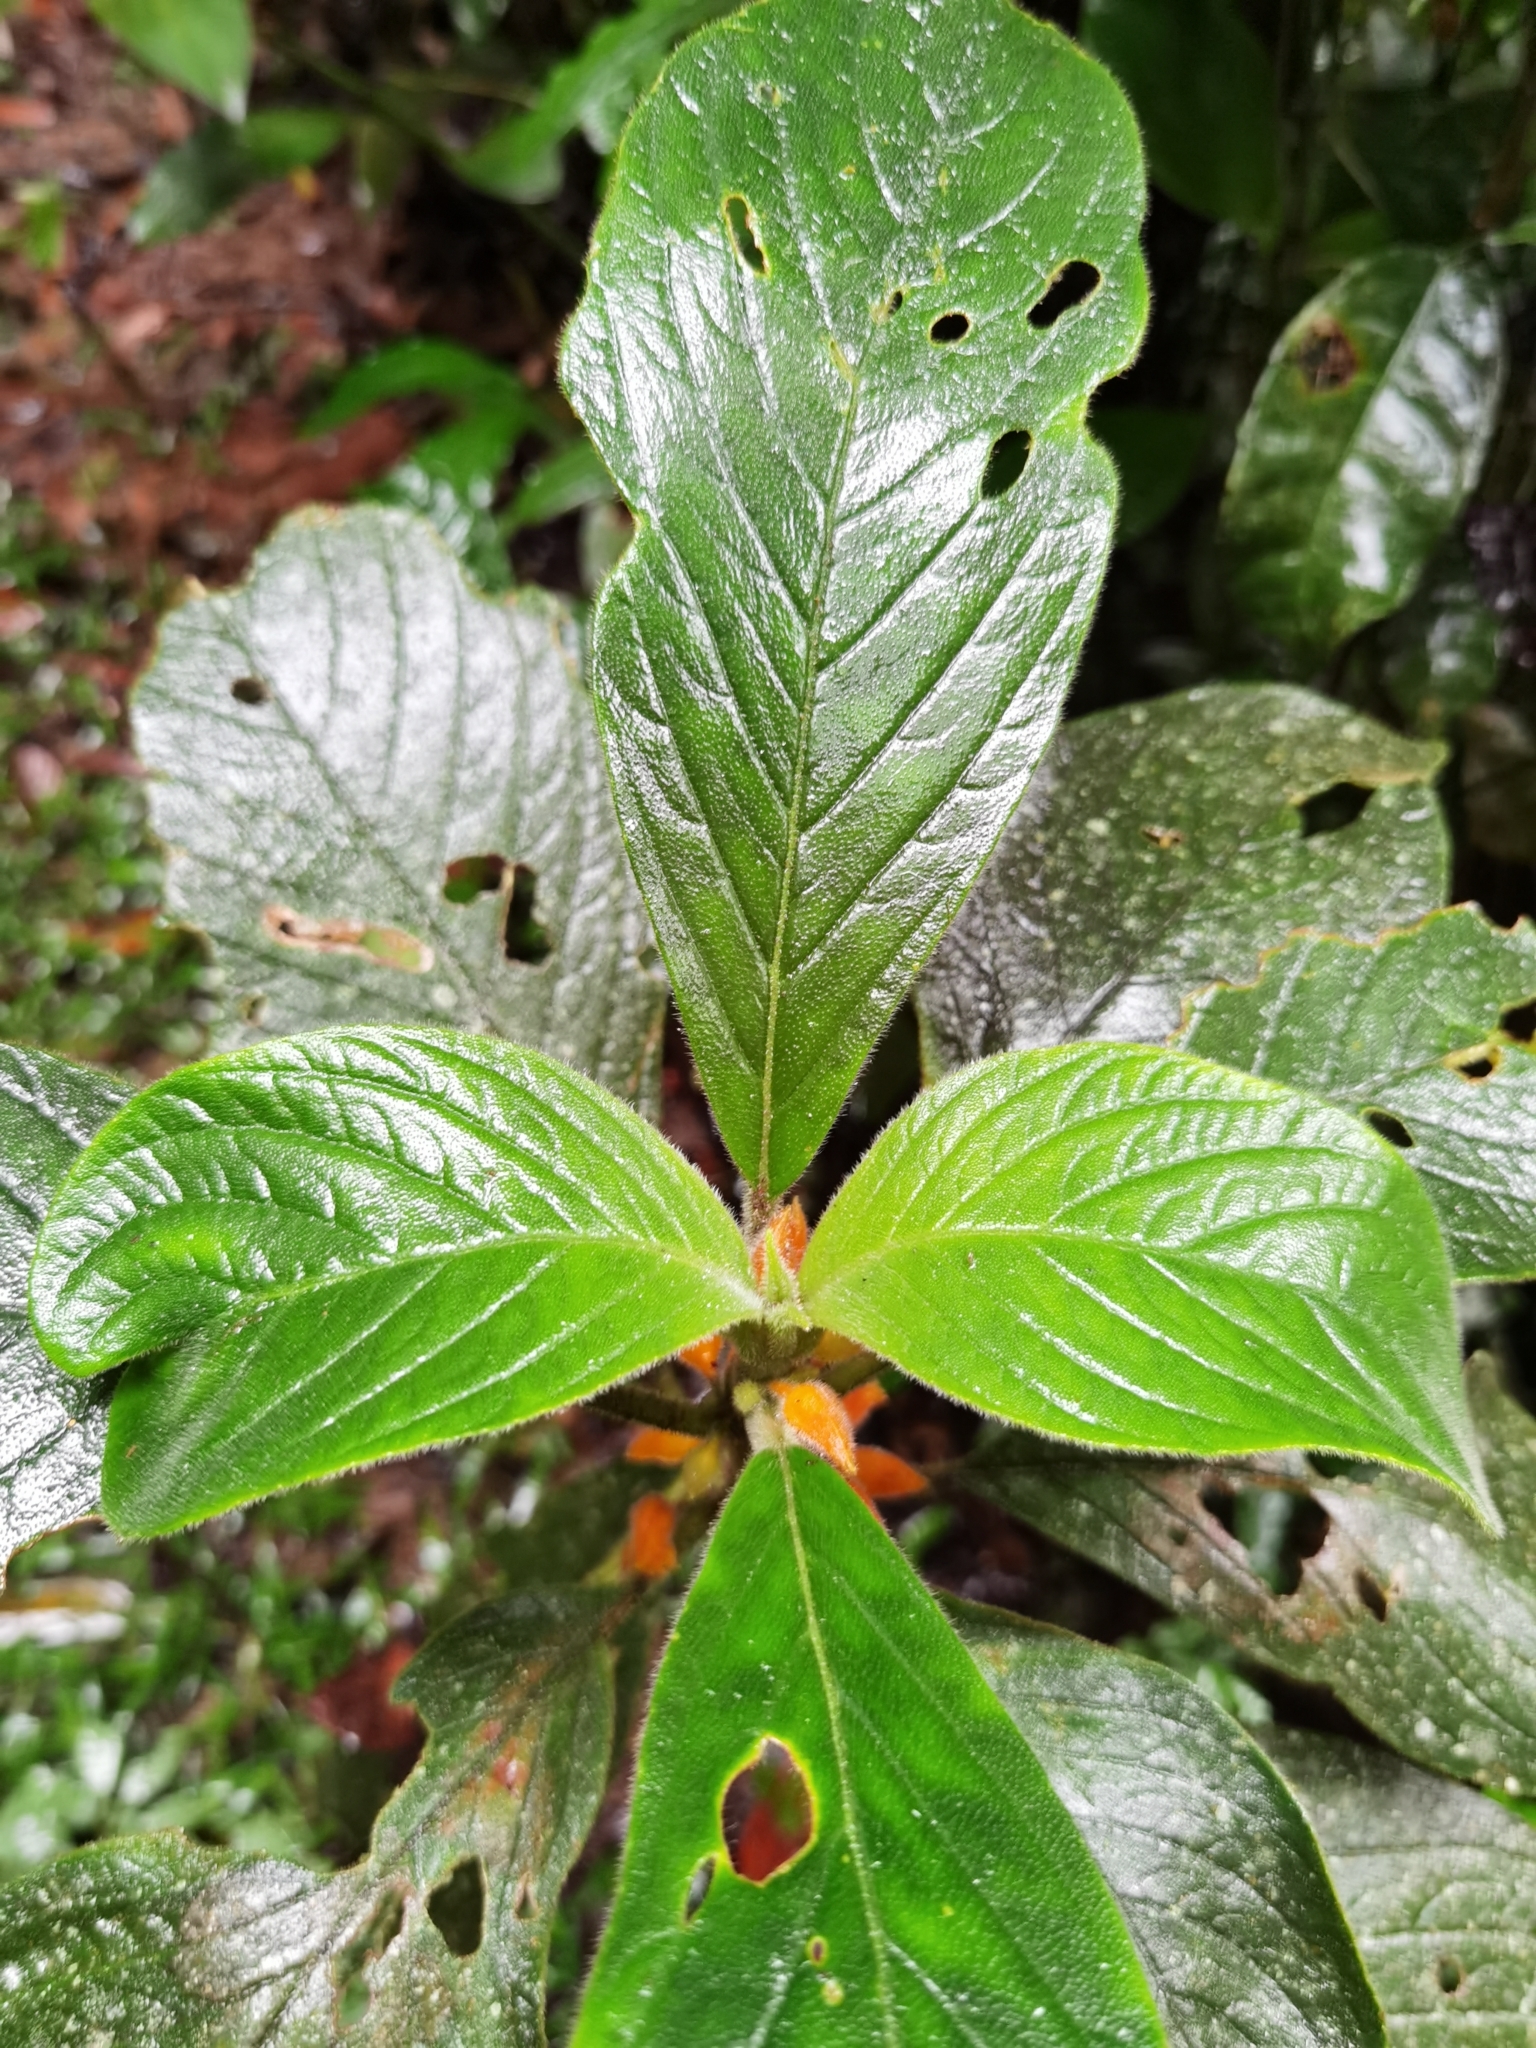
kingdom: Plantae
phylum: Tracheophyta
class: Magnoliopsida
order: Lamiales
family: Gesneriaceae
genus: Besleria
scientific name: Besleria columneoides
